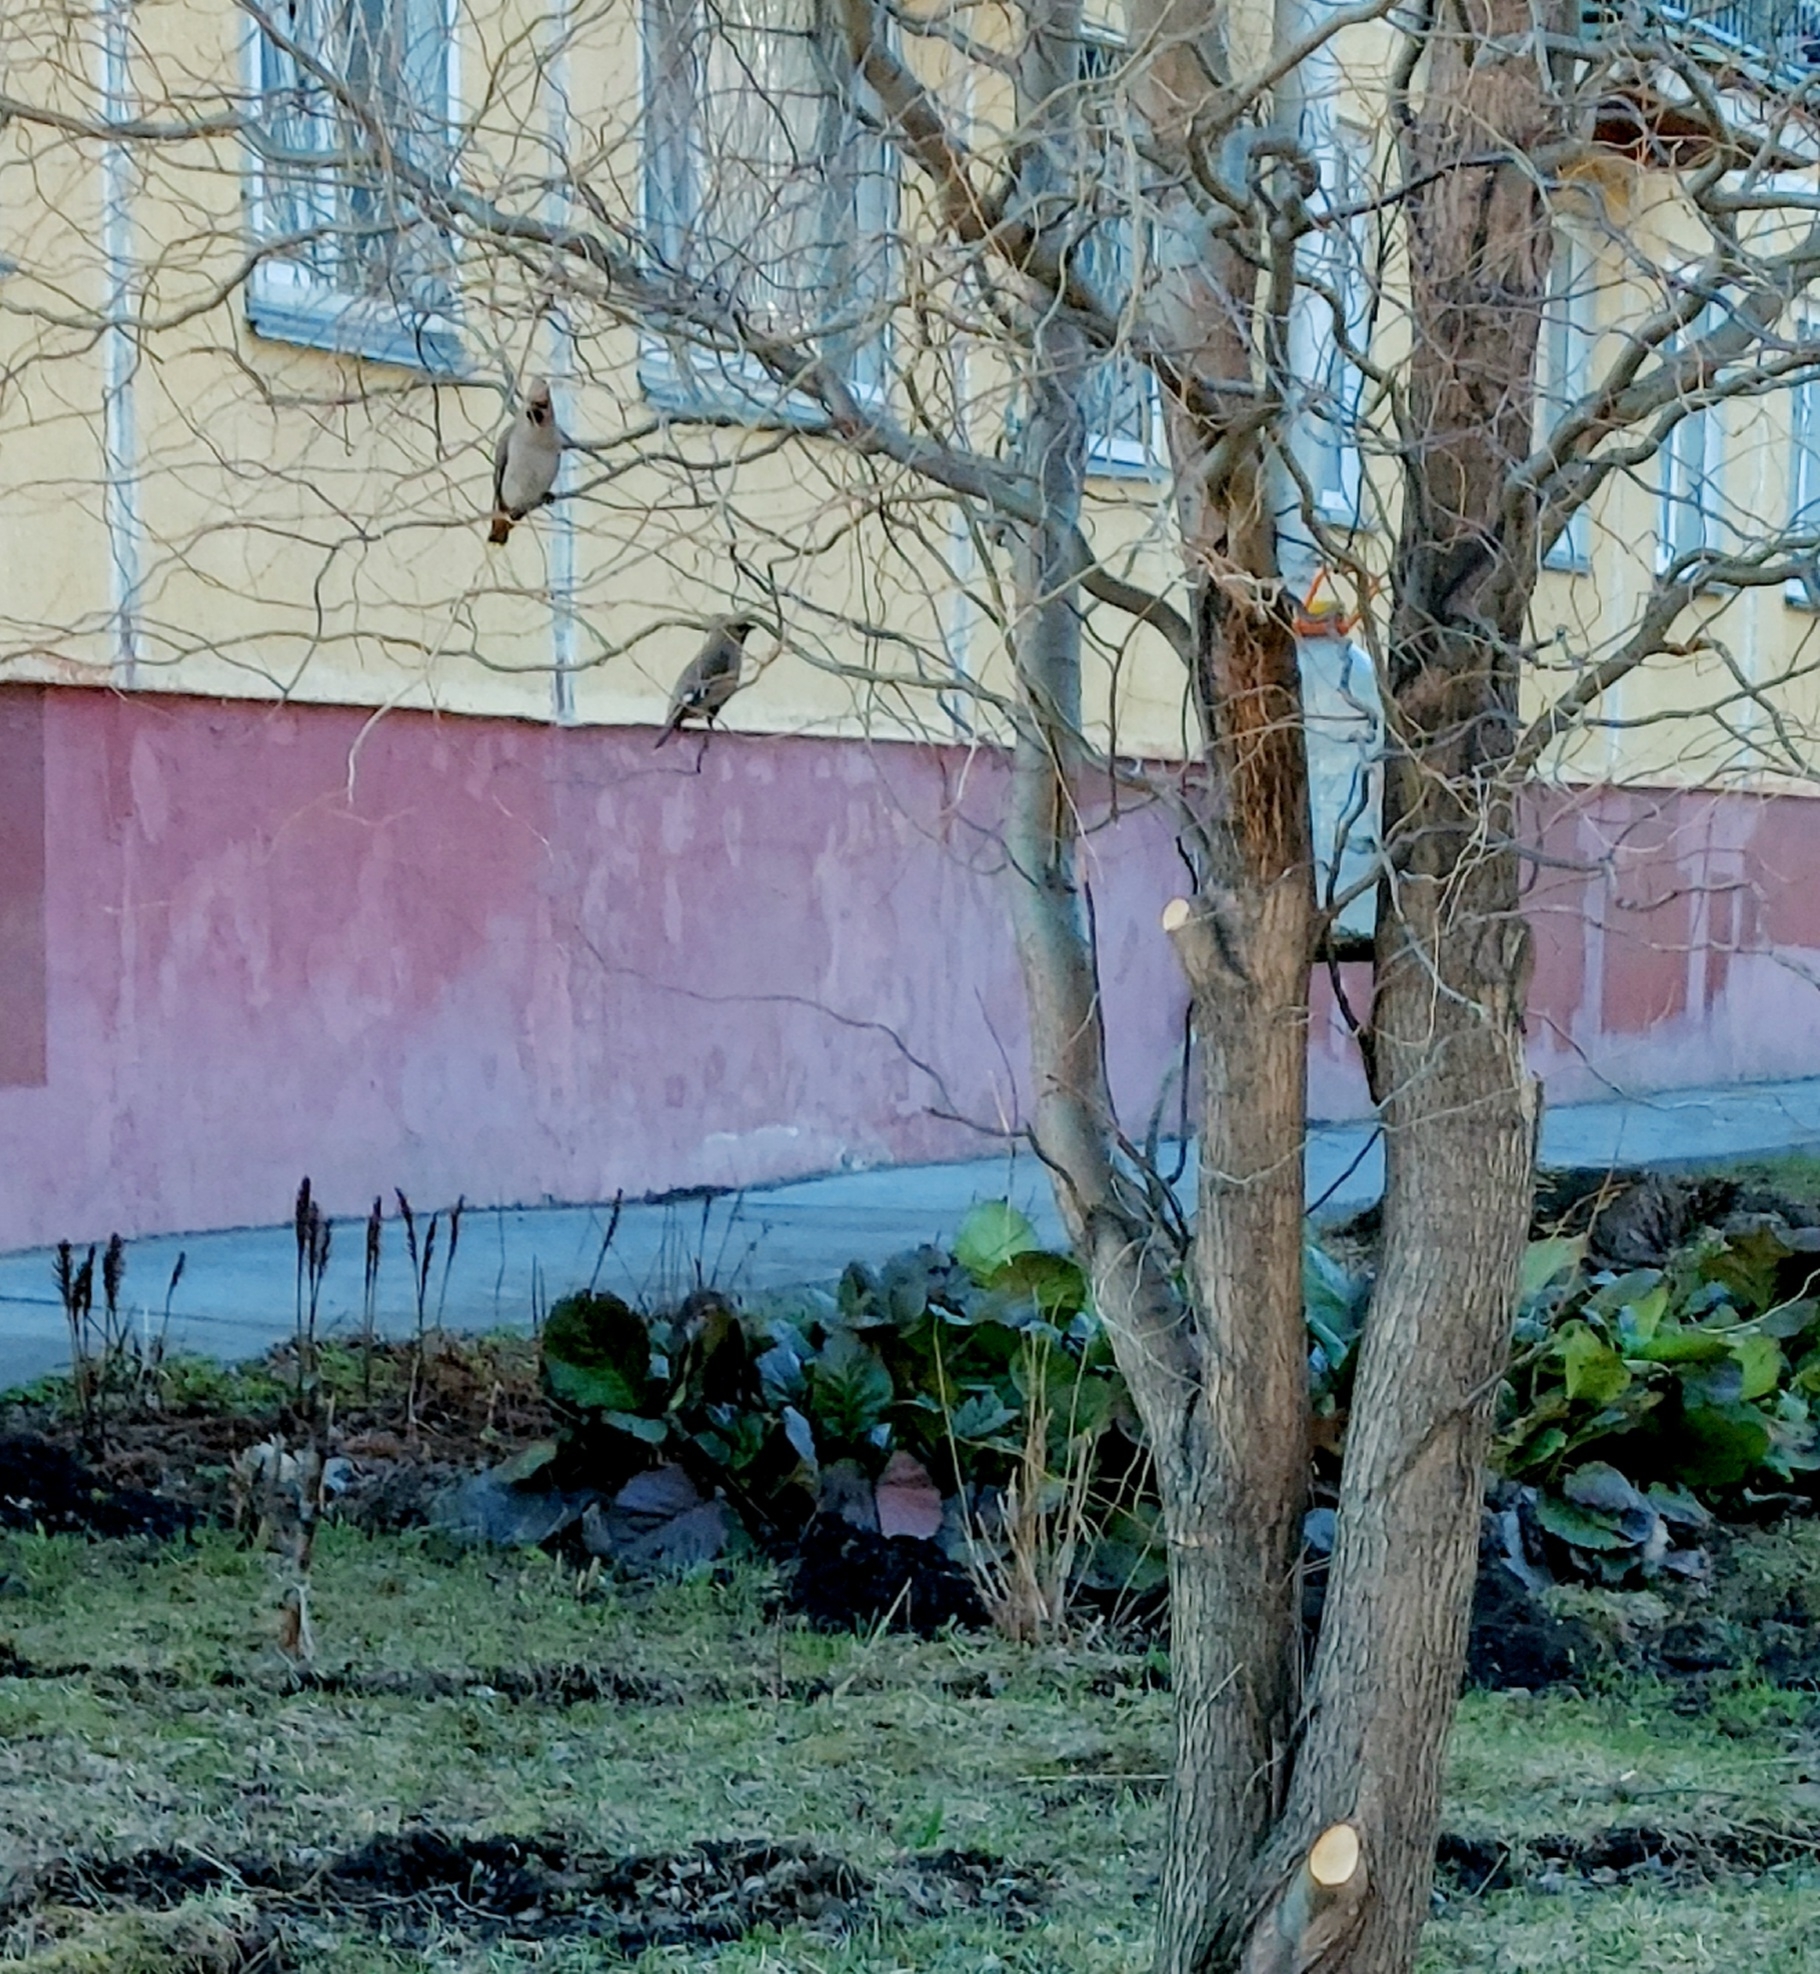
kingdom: Animalia
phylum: Chordata
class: Aves
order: Passeriformes
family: Bombycillidae
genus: Bombycilla
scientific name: Bombycilla garrulus
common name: Bohemian waxwing
